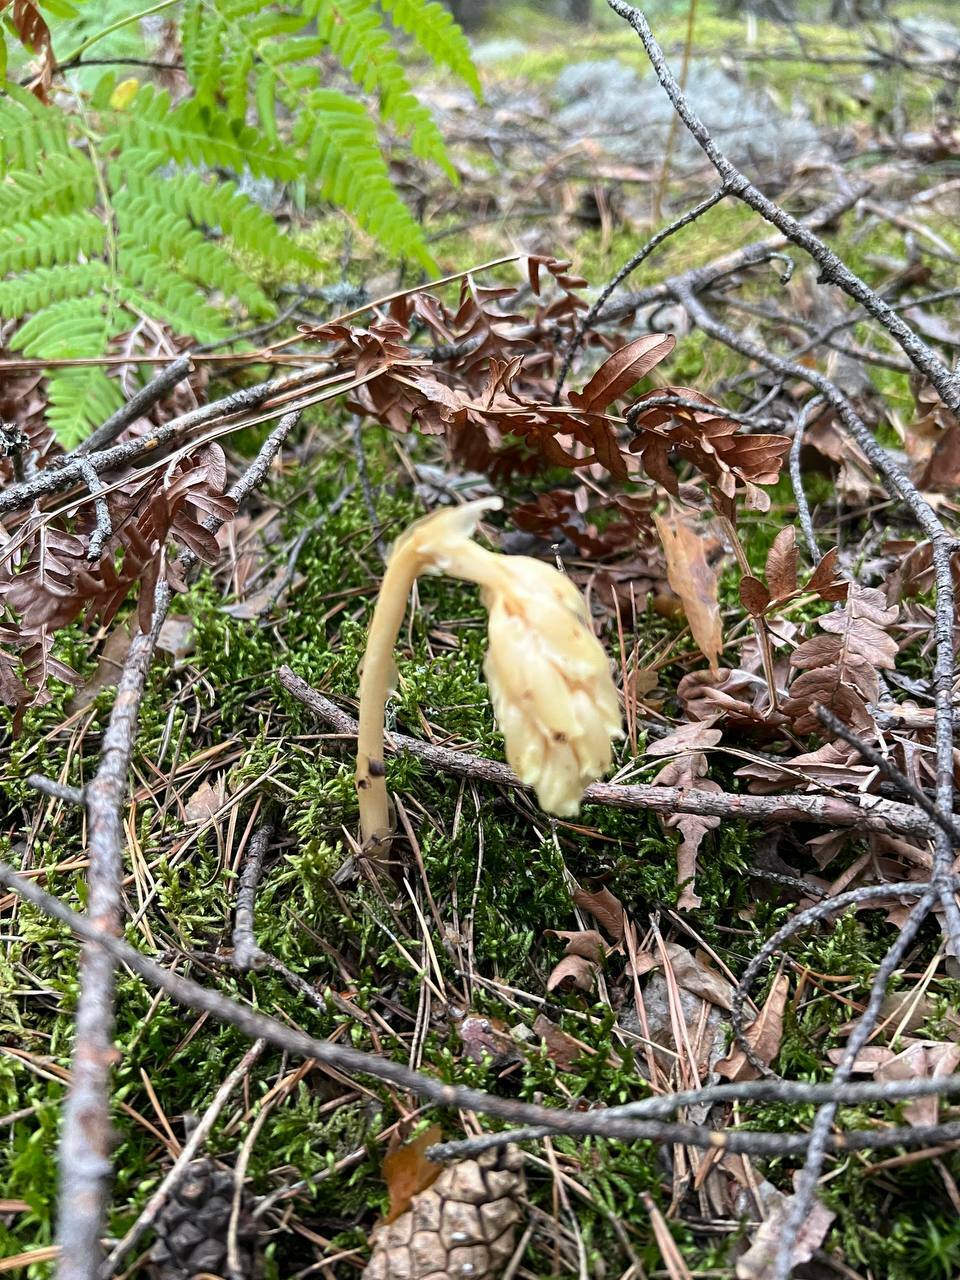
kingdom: Plantae
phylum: Tracheophyta
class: Magnoliopsida
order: Ericales
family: Ericaceae
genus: Hypopitys
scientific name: Hypopitys monotropa
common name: Yellow bird's-nest
